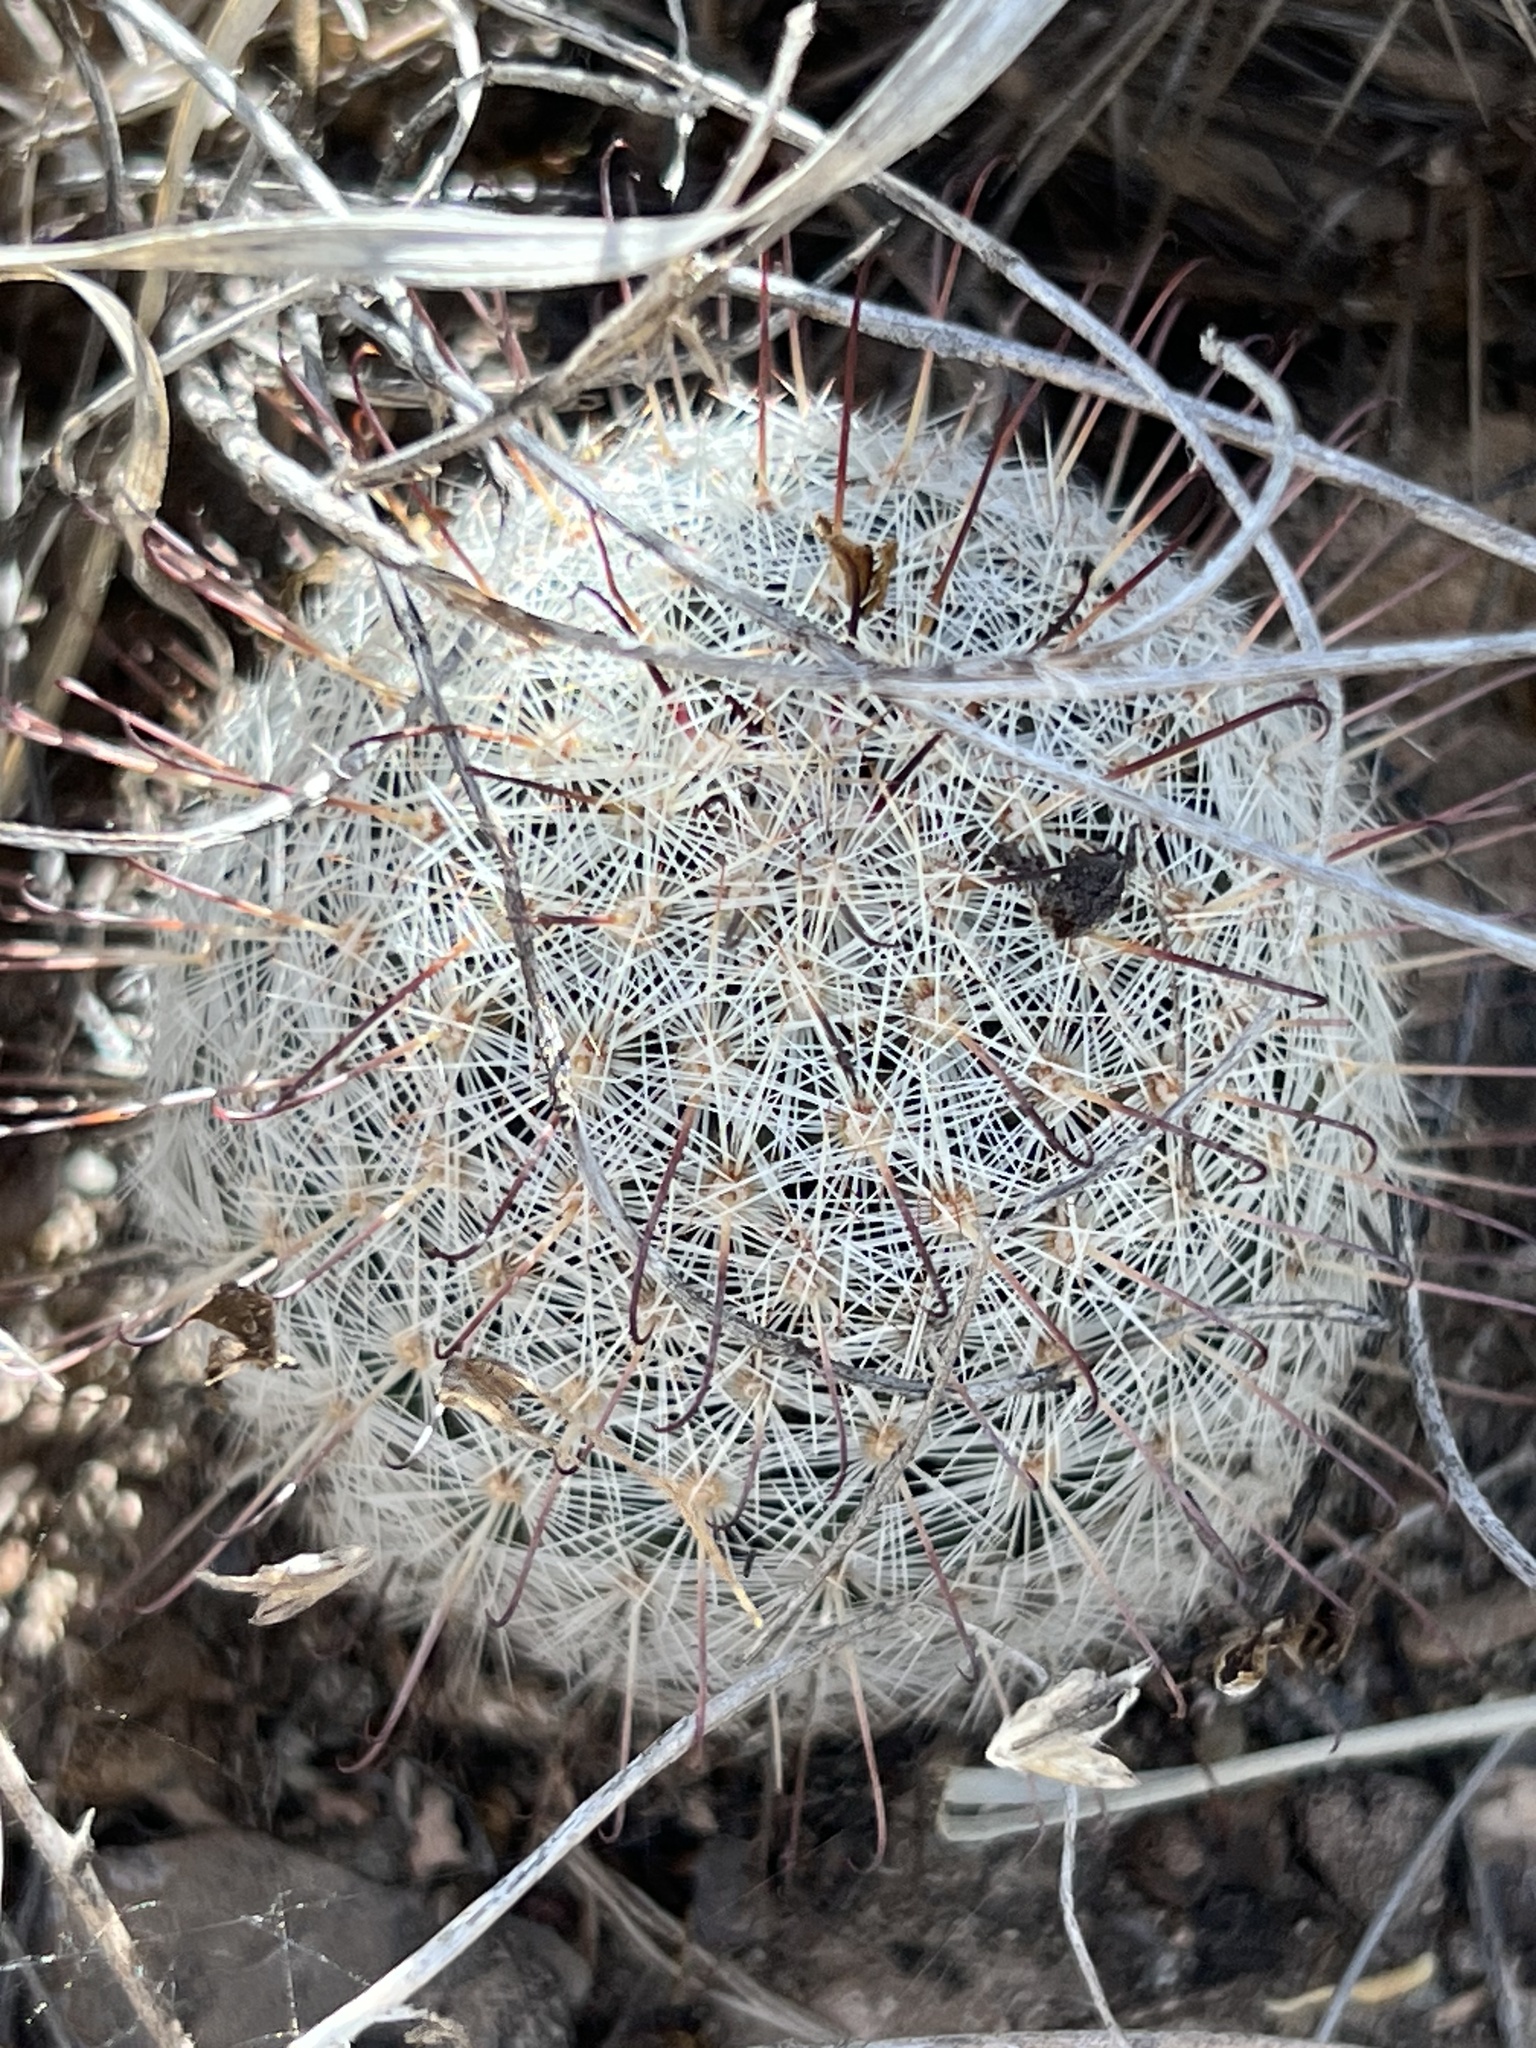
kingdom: Plantae
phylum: Tracheophyta
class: Magnoliopsida
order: Caryophyllales
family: Cactaceae
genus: Cochemiea
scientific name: Cochemiea grahamii
